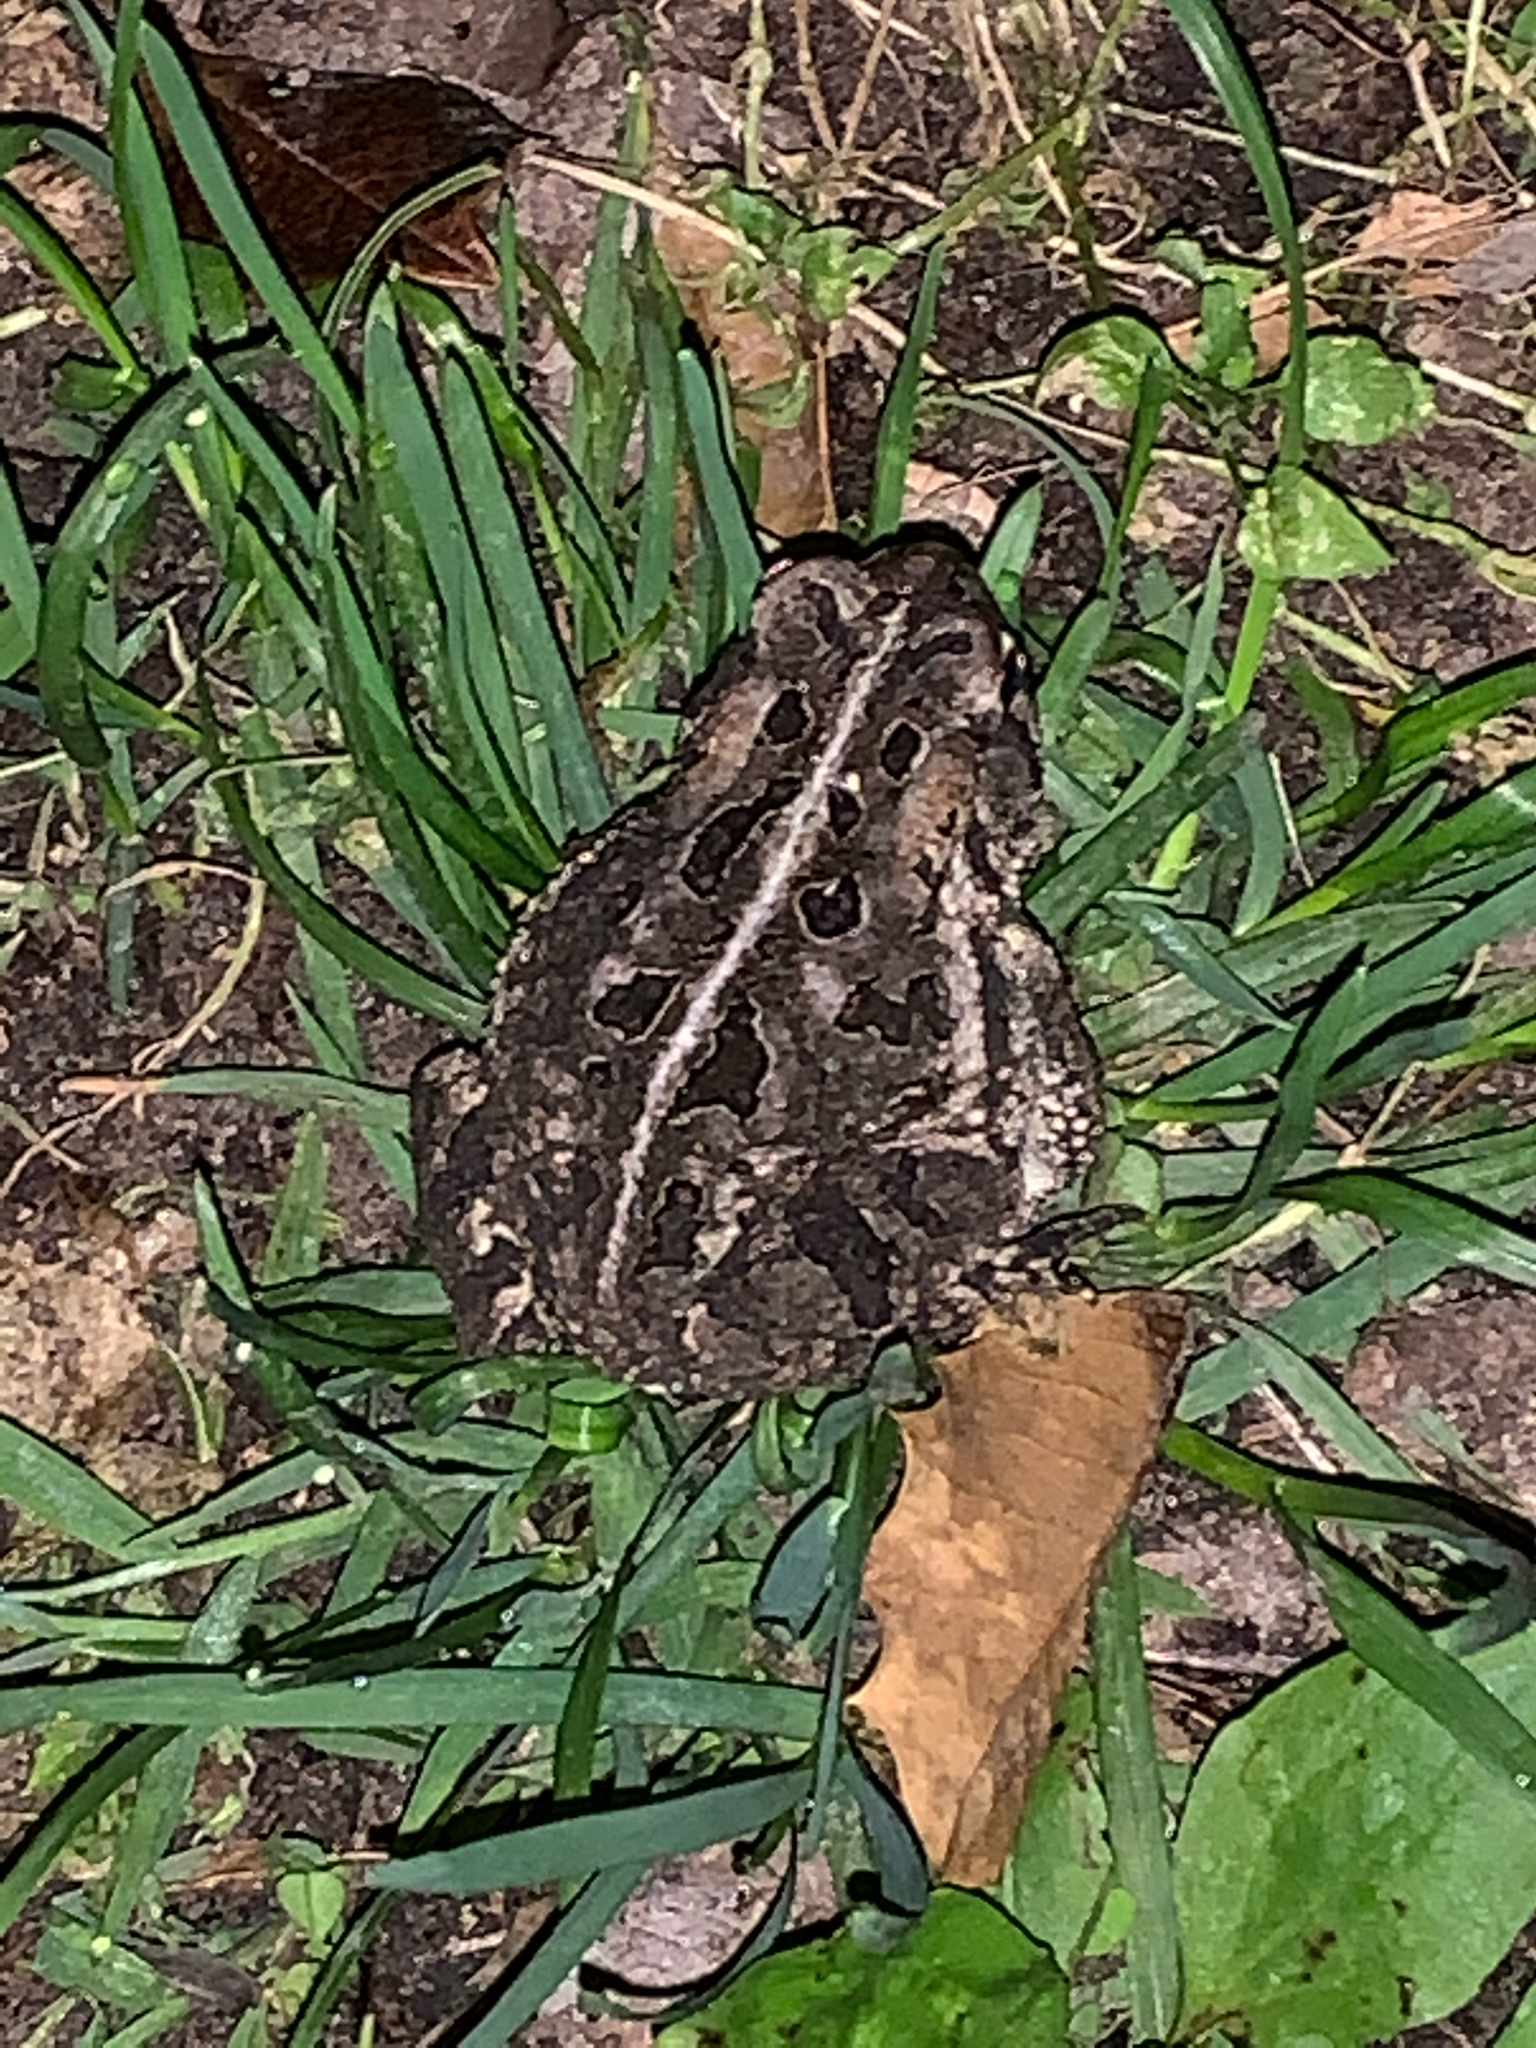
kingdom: Animalia
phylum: Chordata
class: Amphibia
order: Anura
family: Bufonidae
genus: Anaxyrus
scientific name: Anaxyrus fowleri
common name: Fowler's toad
